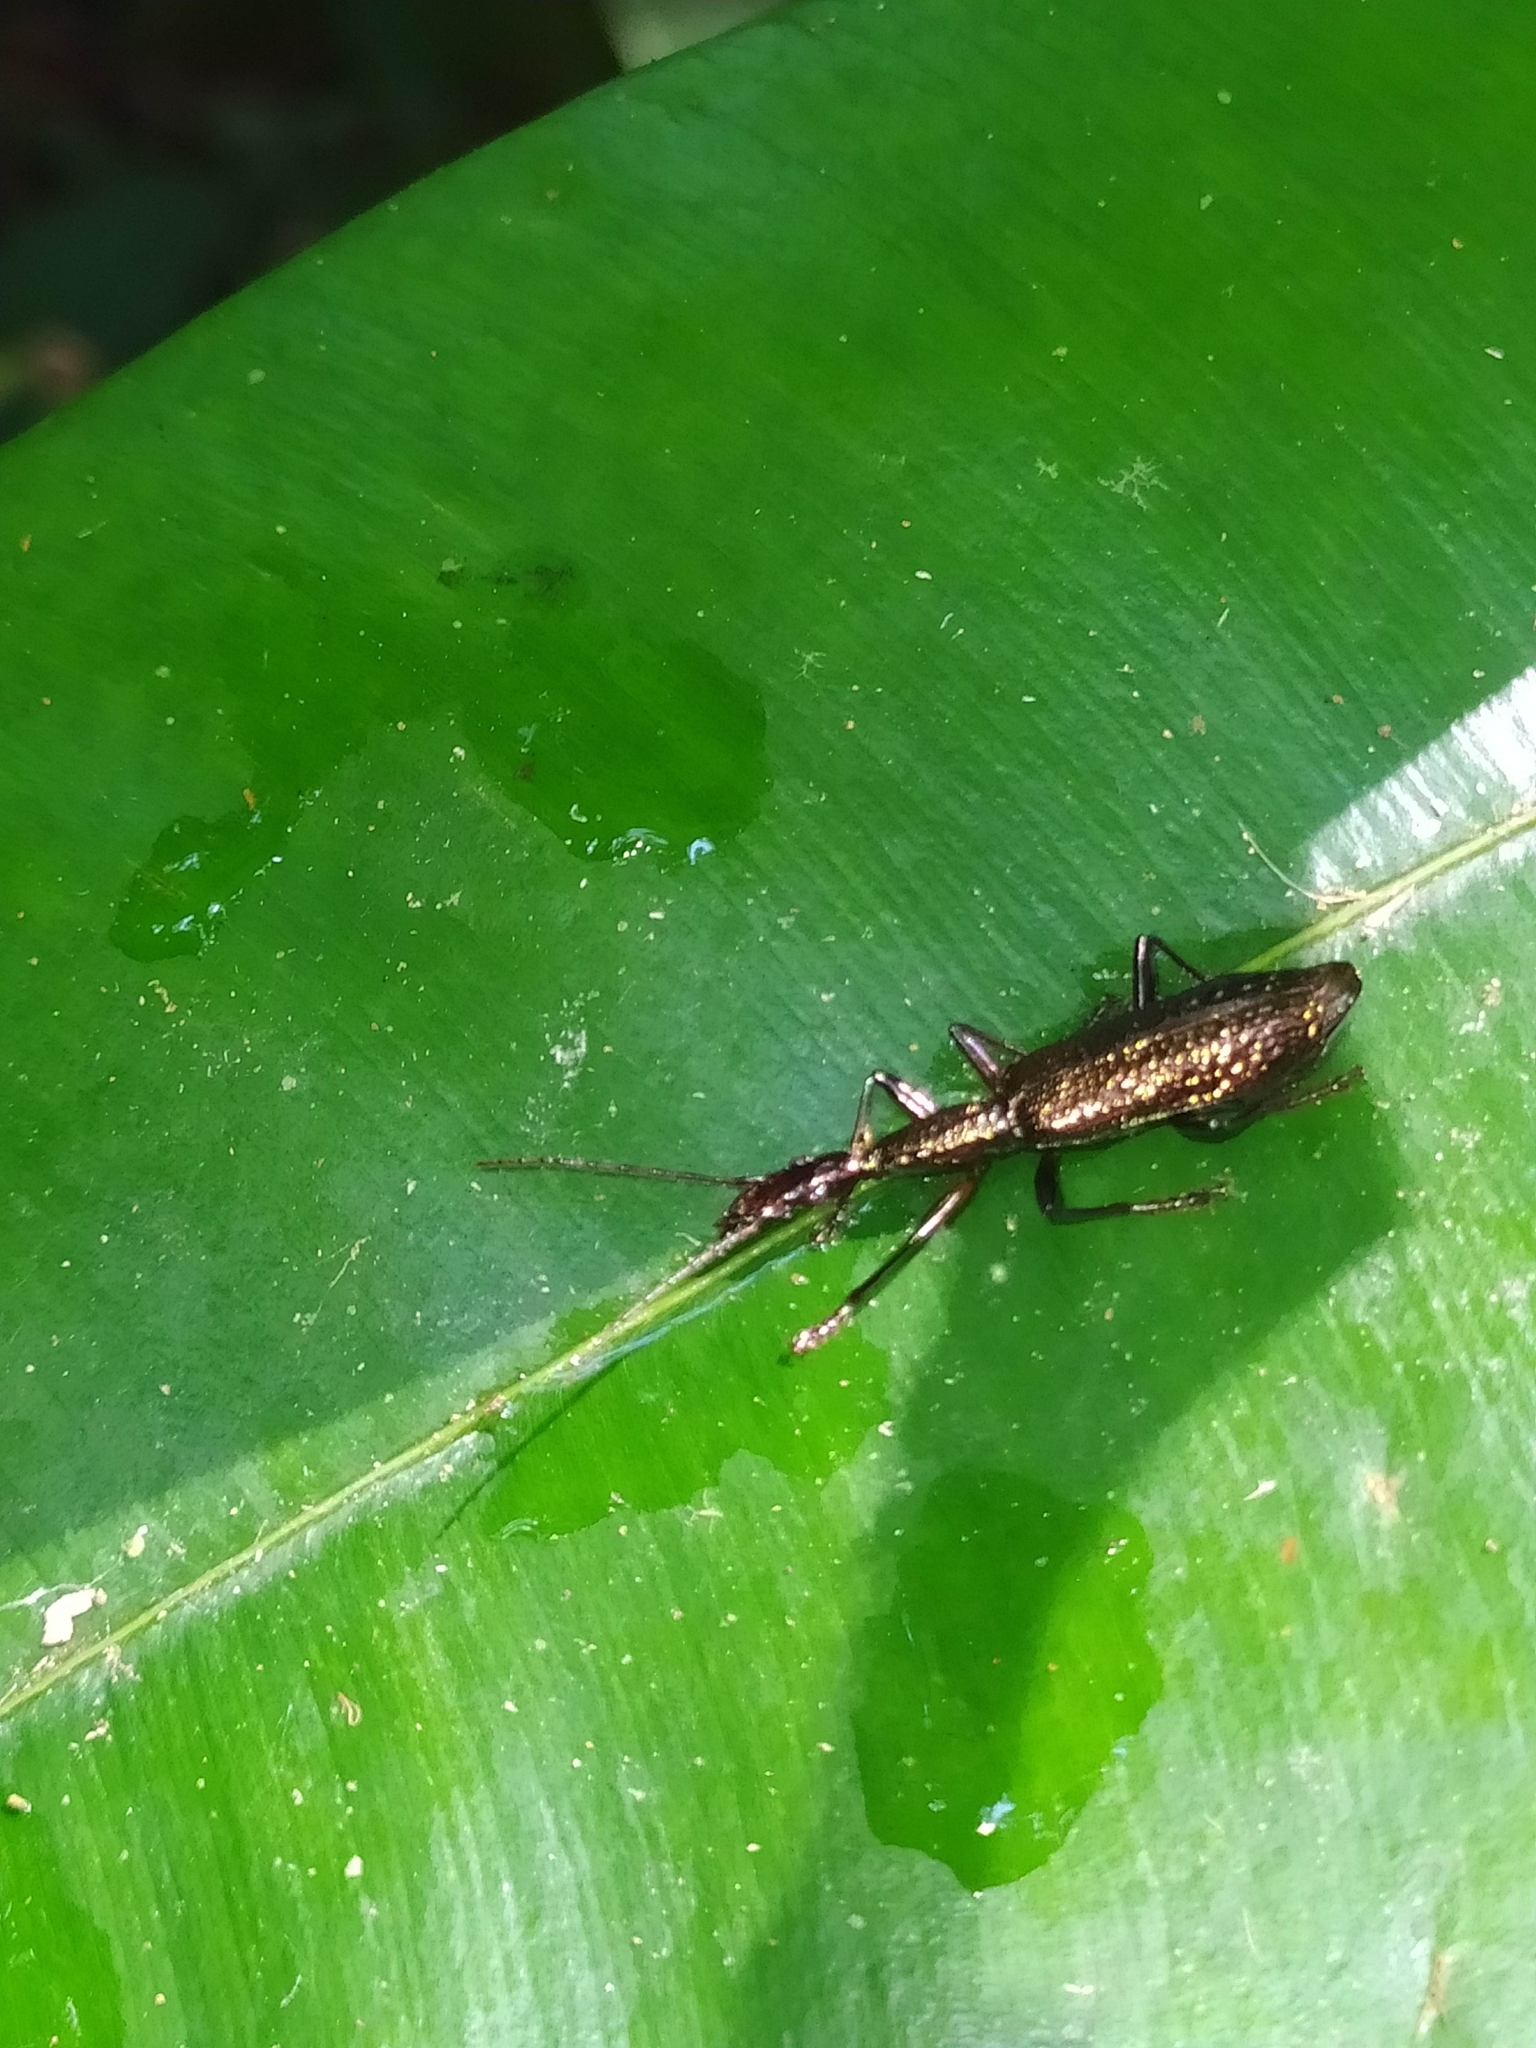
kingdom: Animalia
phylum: Arthropoda
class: Insecta
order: Coleoptera
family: Carabidae
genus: Agra
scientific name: Agra
